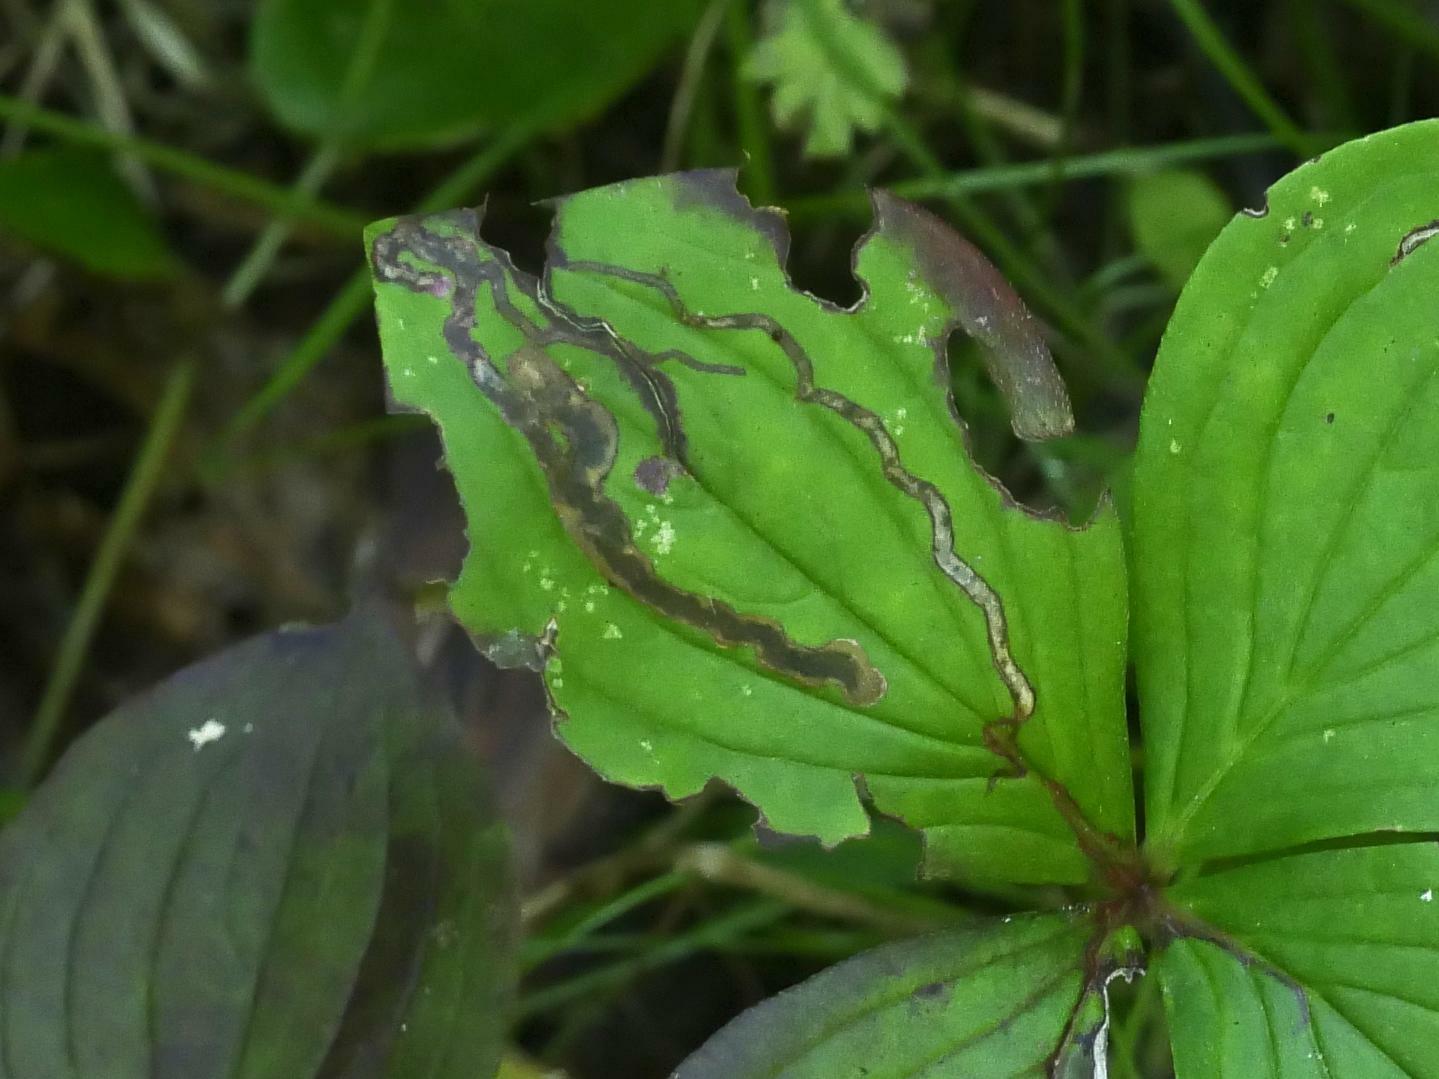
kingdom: Animalia
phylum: Arthropoda
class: Insecta
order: Diptera
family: Agromyzidae
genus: Phytomyza
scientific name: Phytomyza agromyzina
